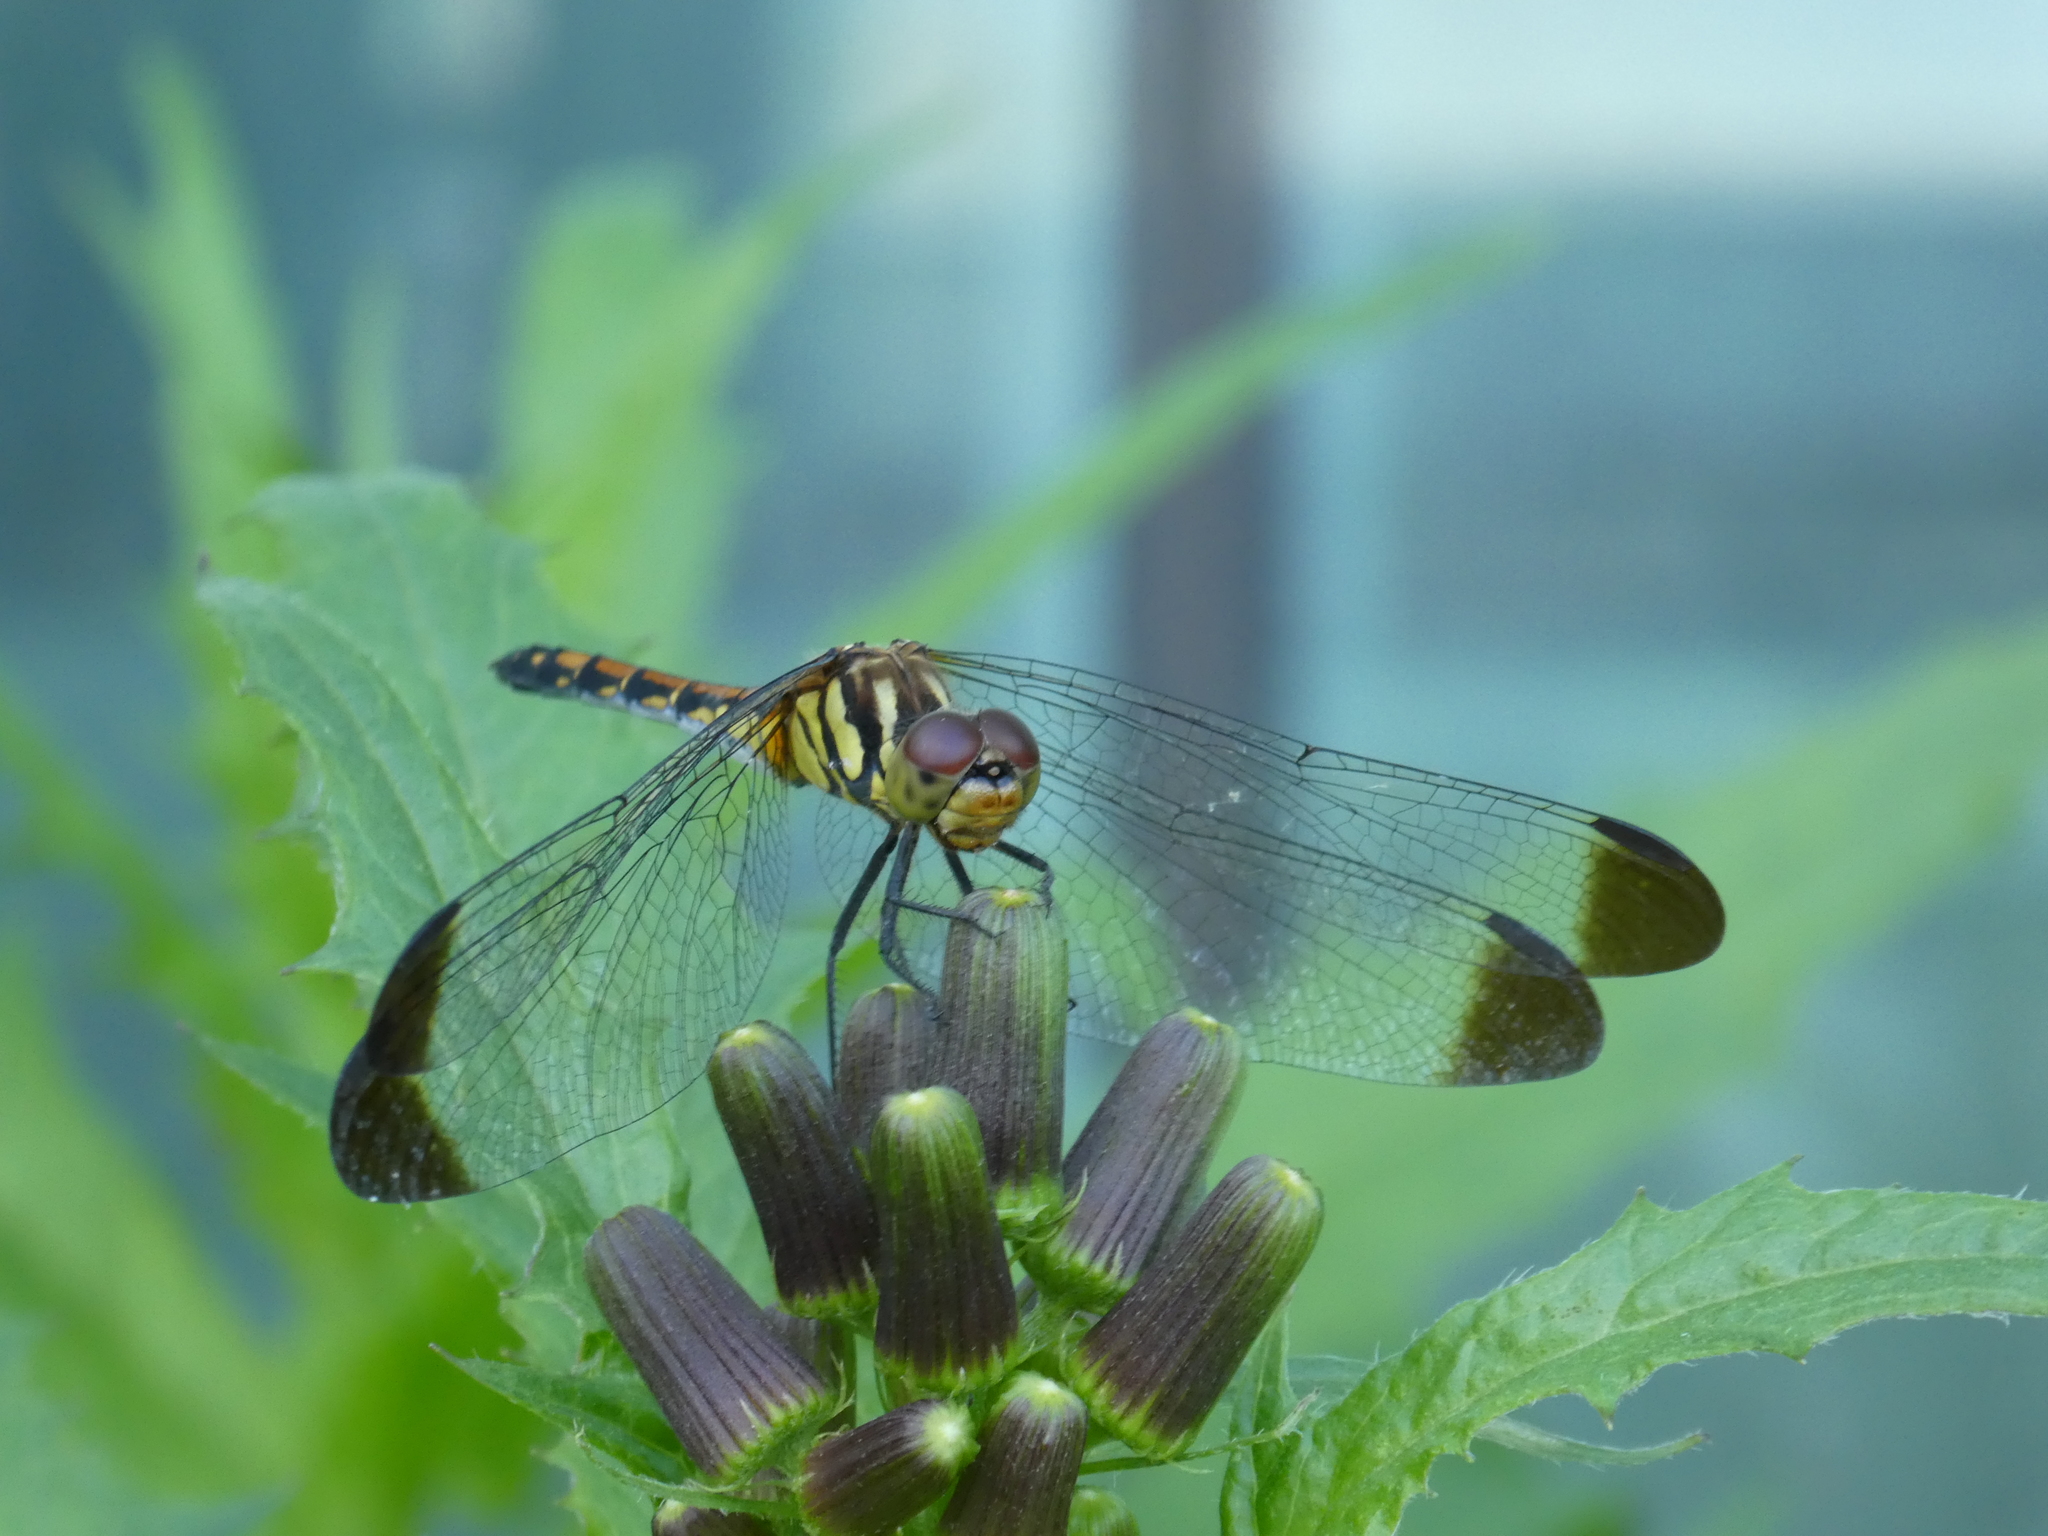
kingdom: Animalia
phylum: Arthropoda
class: Insecta
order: Odonata
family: Libellulidae
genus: Sympetrum
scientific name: Sympetrum infuscatum
